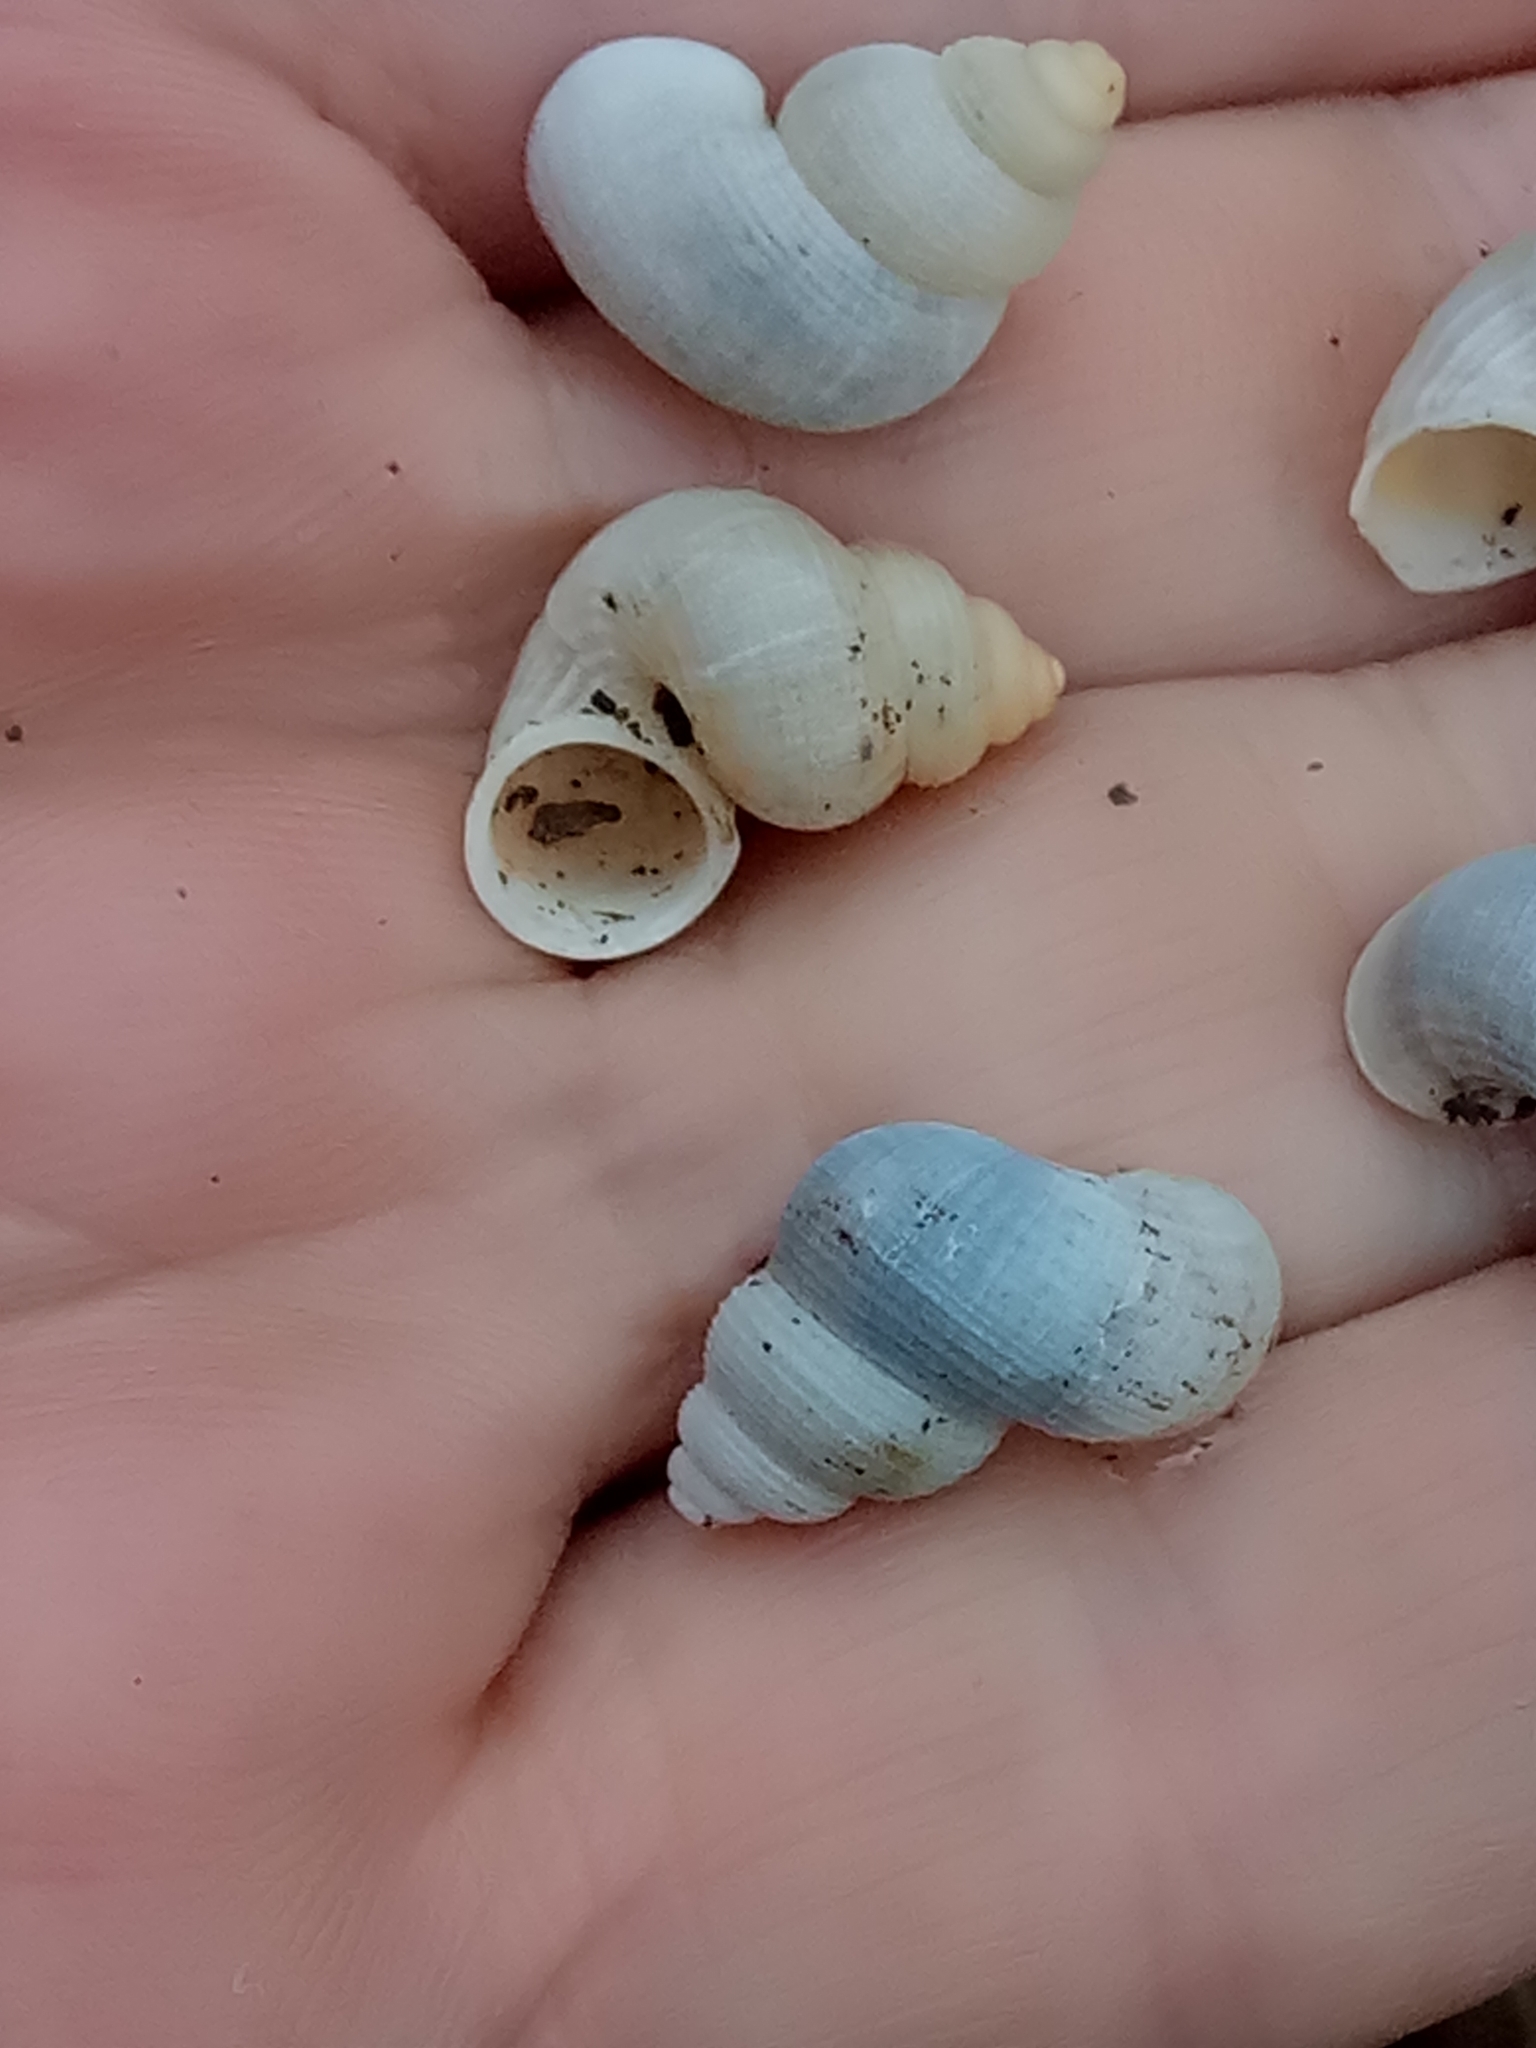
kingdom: Animalia
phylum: Mollusca
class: Gastropoda
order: Littorinimorpha
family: Pomatiidae
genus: Tudorella
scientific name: Tudorella sulcata
